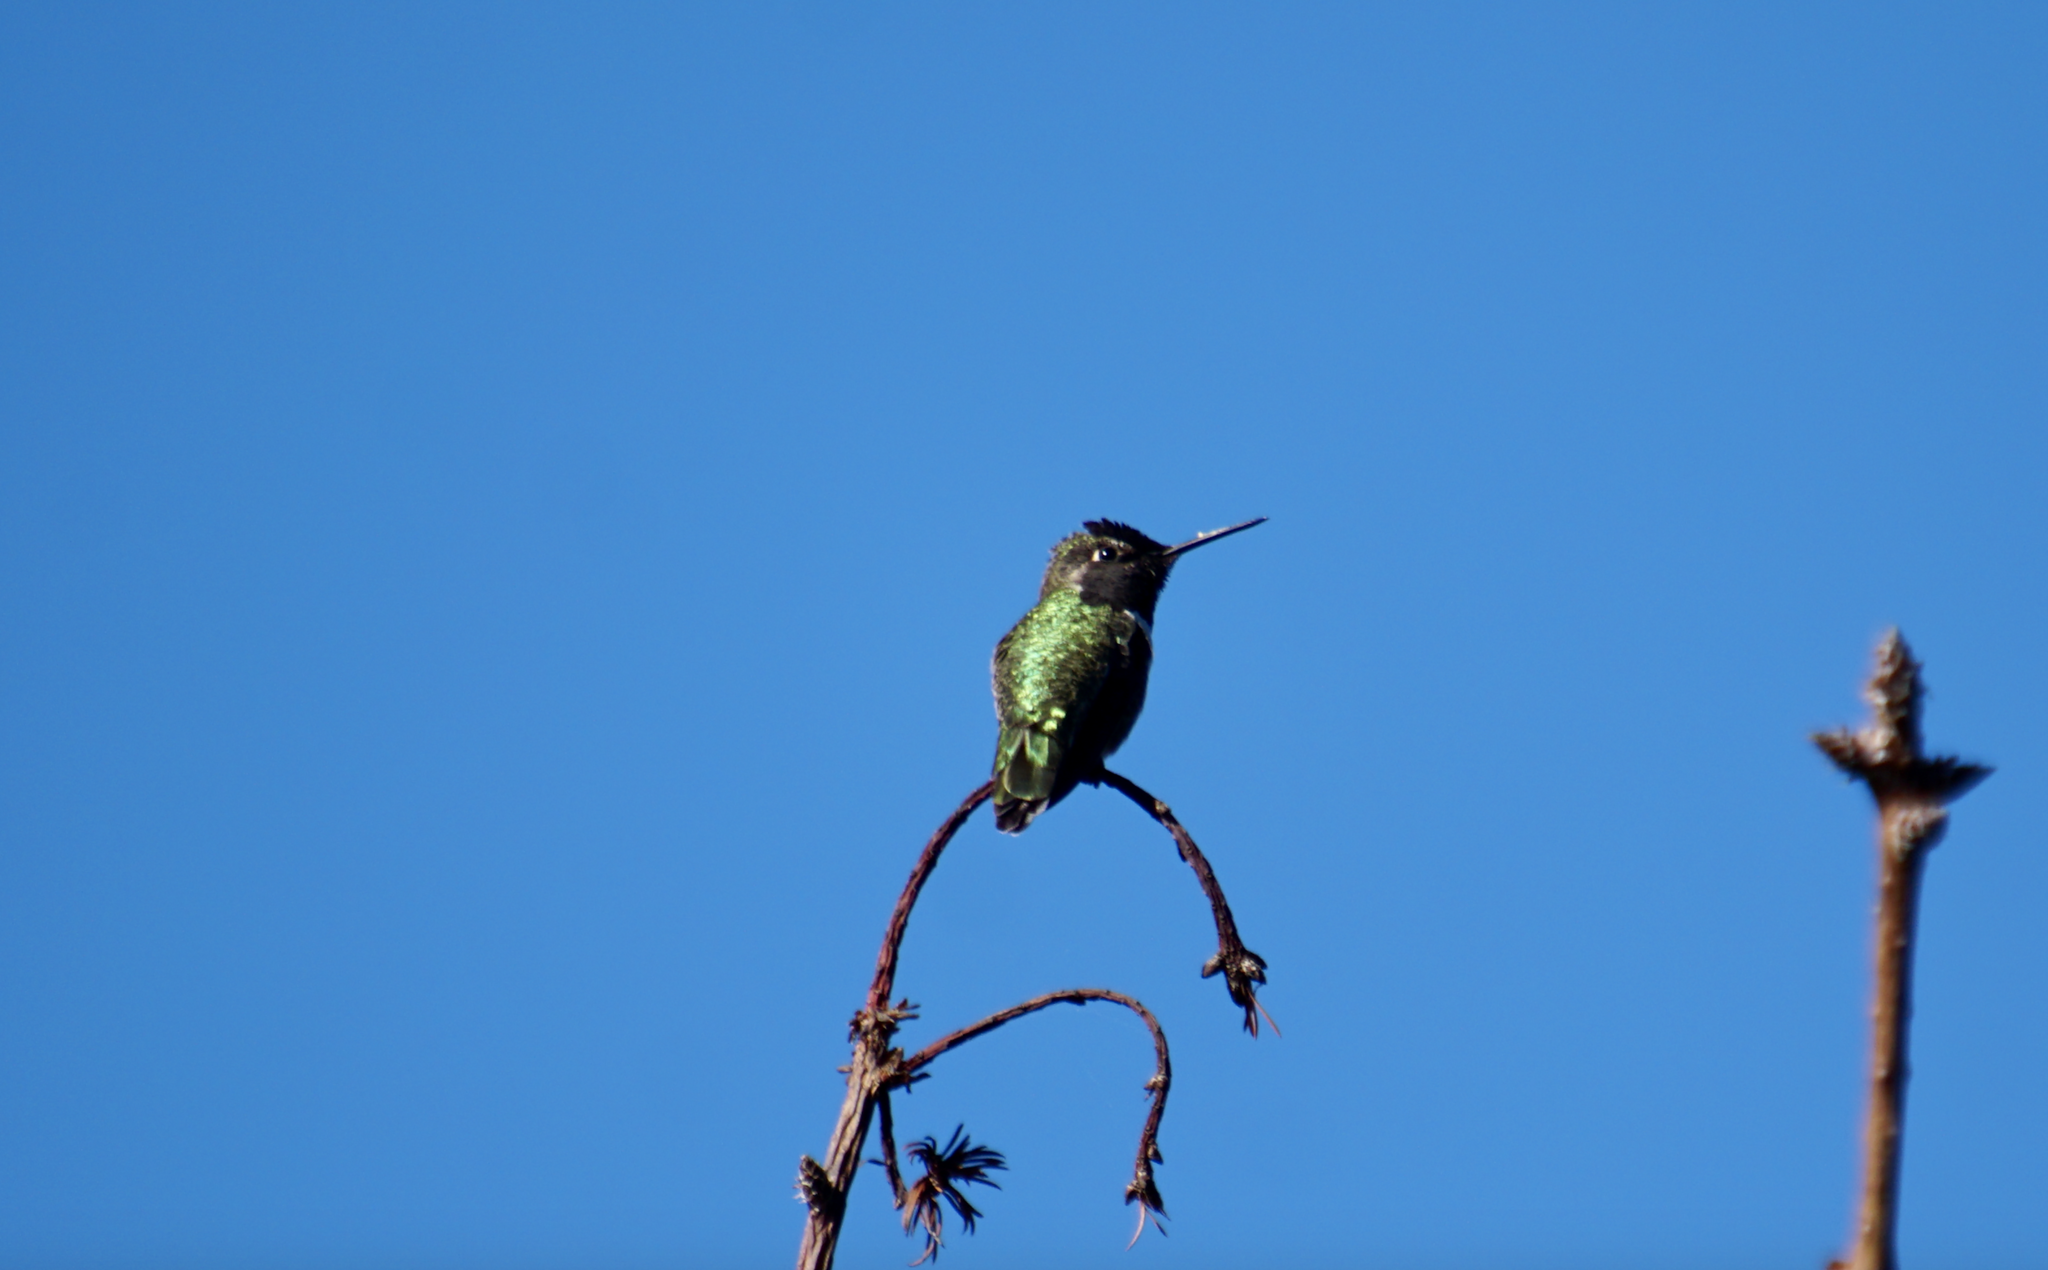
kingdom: Animalia
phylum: Chordata
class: Aves
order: Apodiformes
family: Trochilidae
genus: Calypte
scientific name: Calypte anna
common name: Anna's hummingbird
